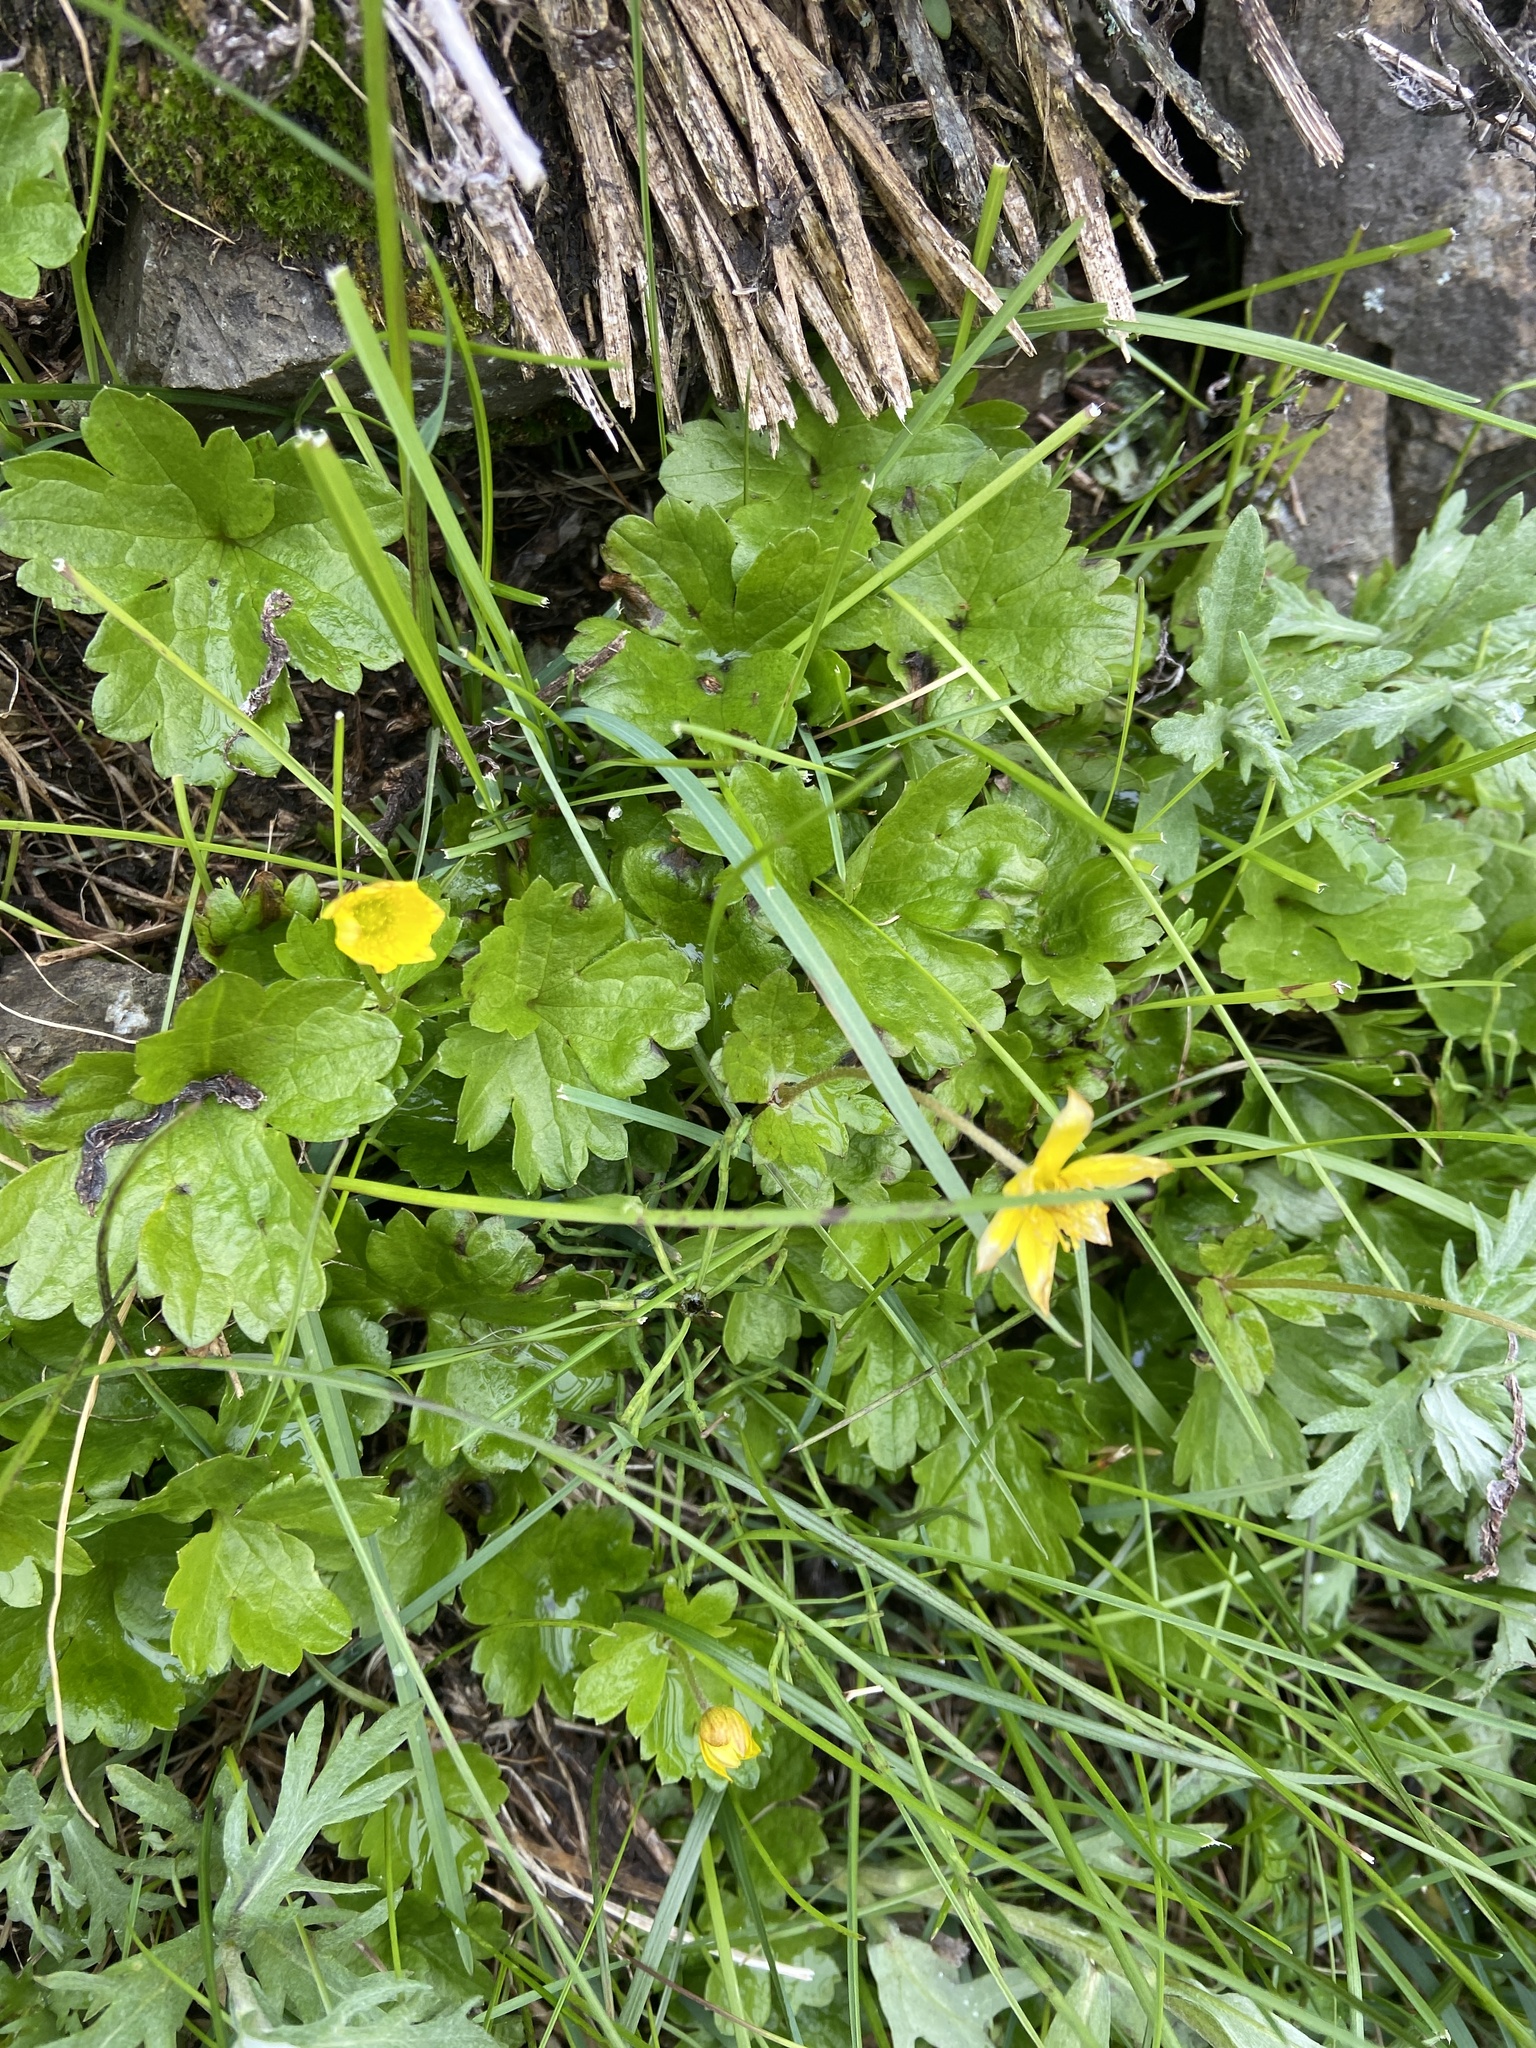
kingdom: Plantae
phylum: Tracheophyta
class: Magnoliopsida
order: Ranunculales
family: Ranunculaceae
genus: Anemonastrum
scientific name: Anemonastrum richardsonii
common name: Richardson's anemone
